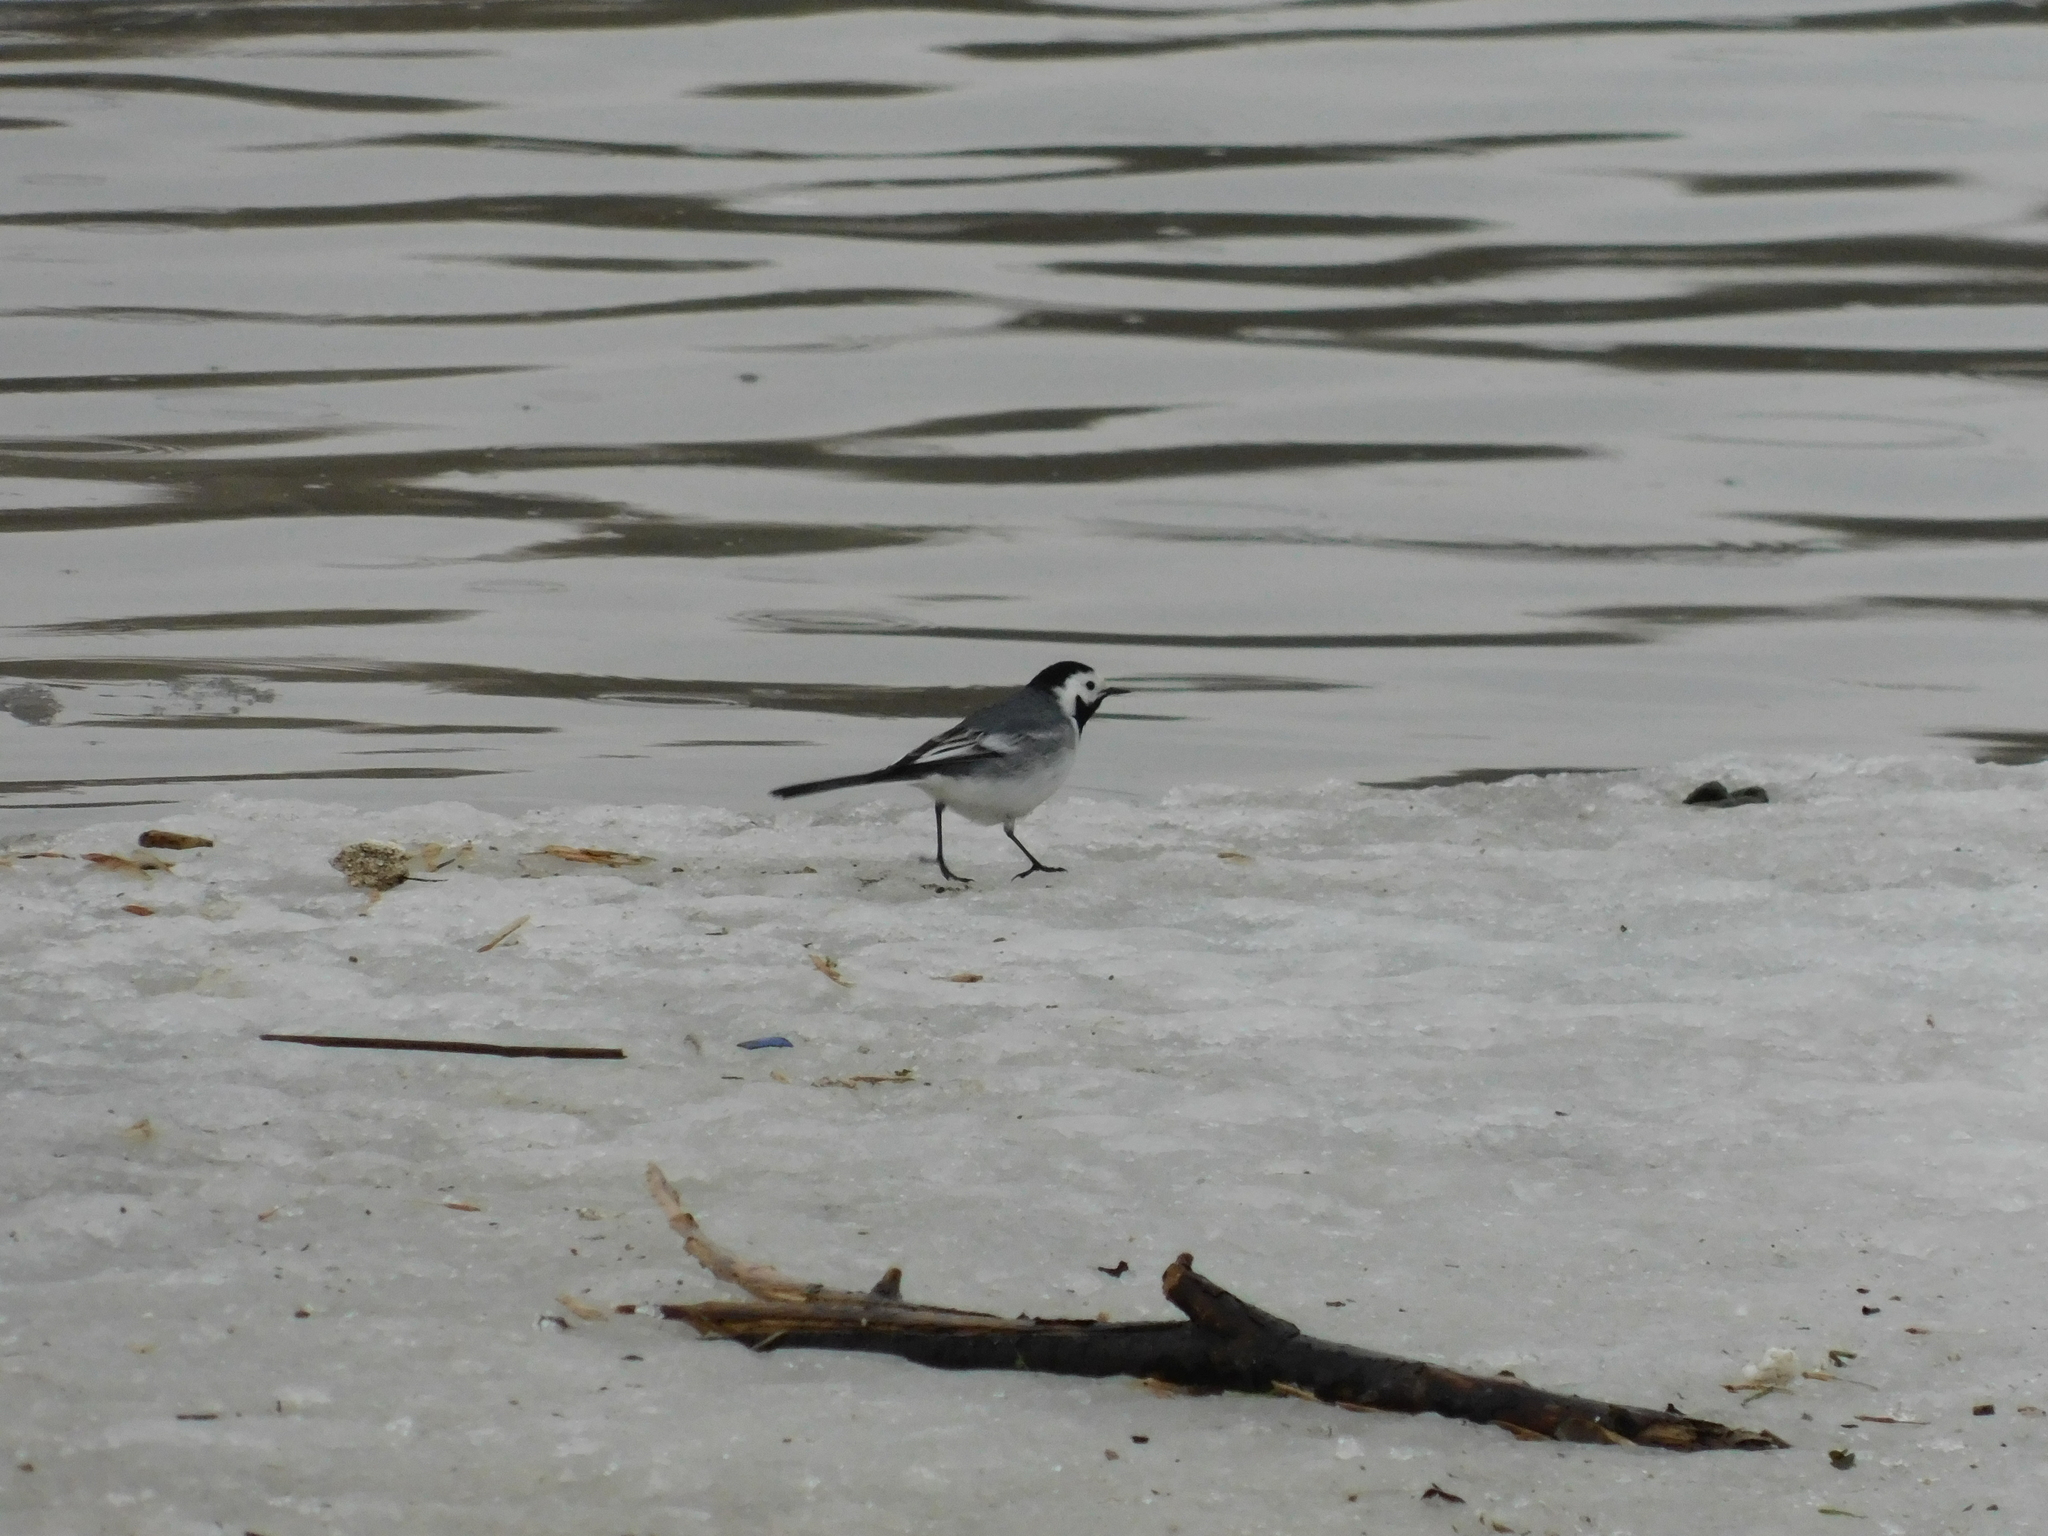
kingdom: Animalia
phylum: Chordata
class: Aves
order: Passeriformes
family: Motacillidae
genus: Motacilla
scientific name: Motacilla alba
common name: White wagtail
